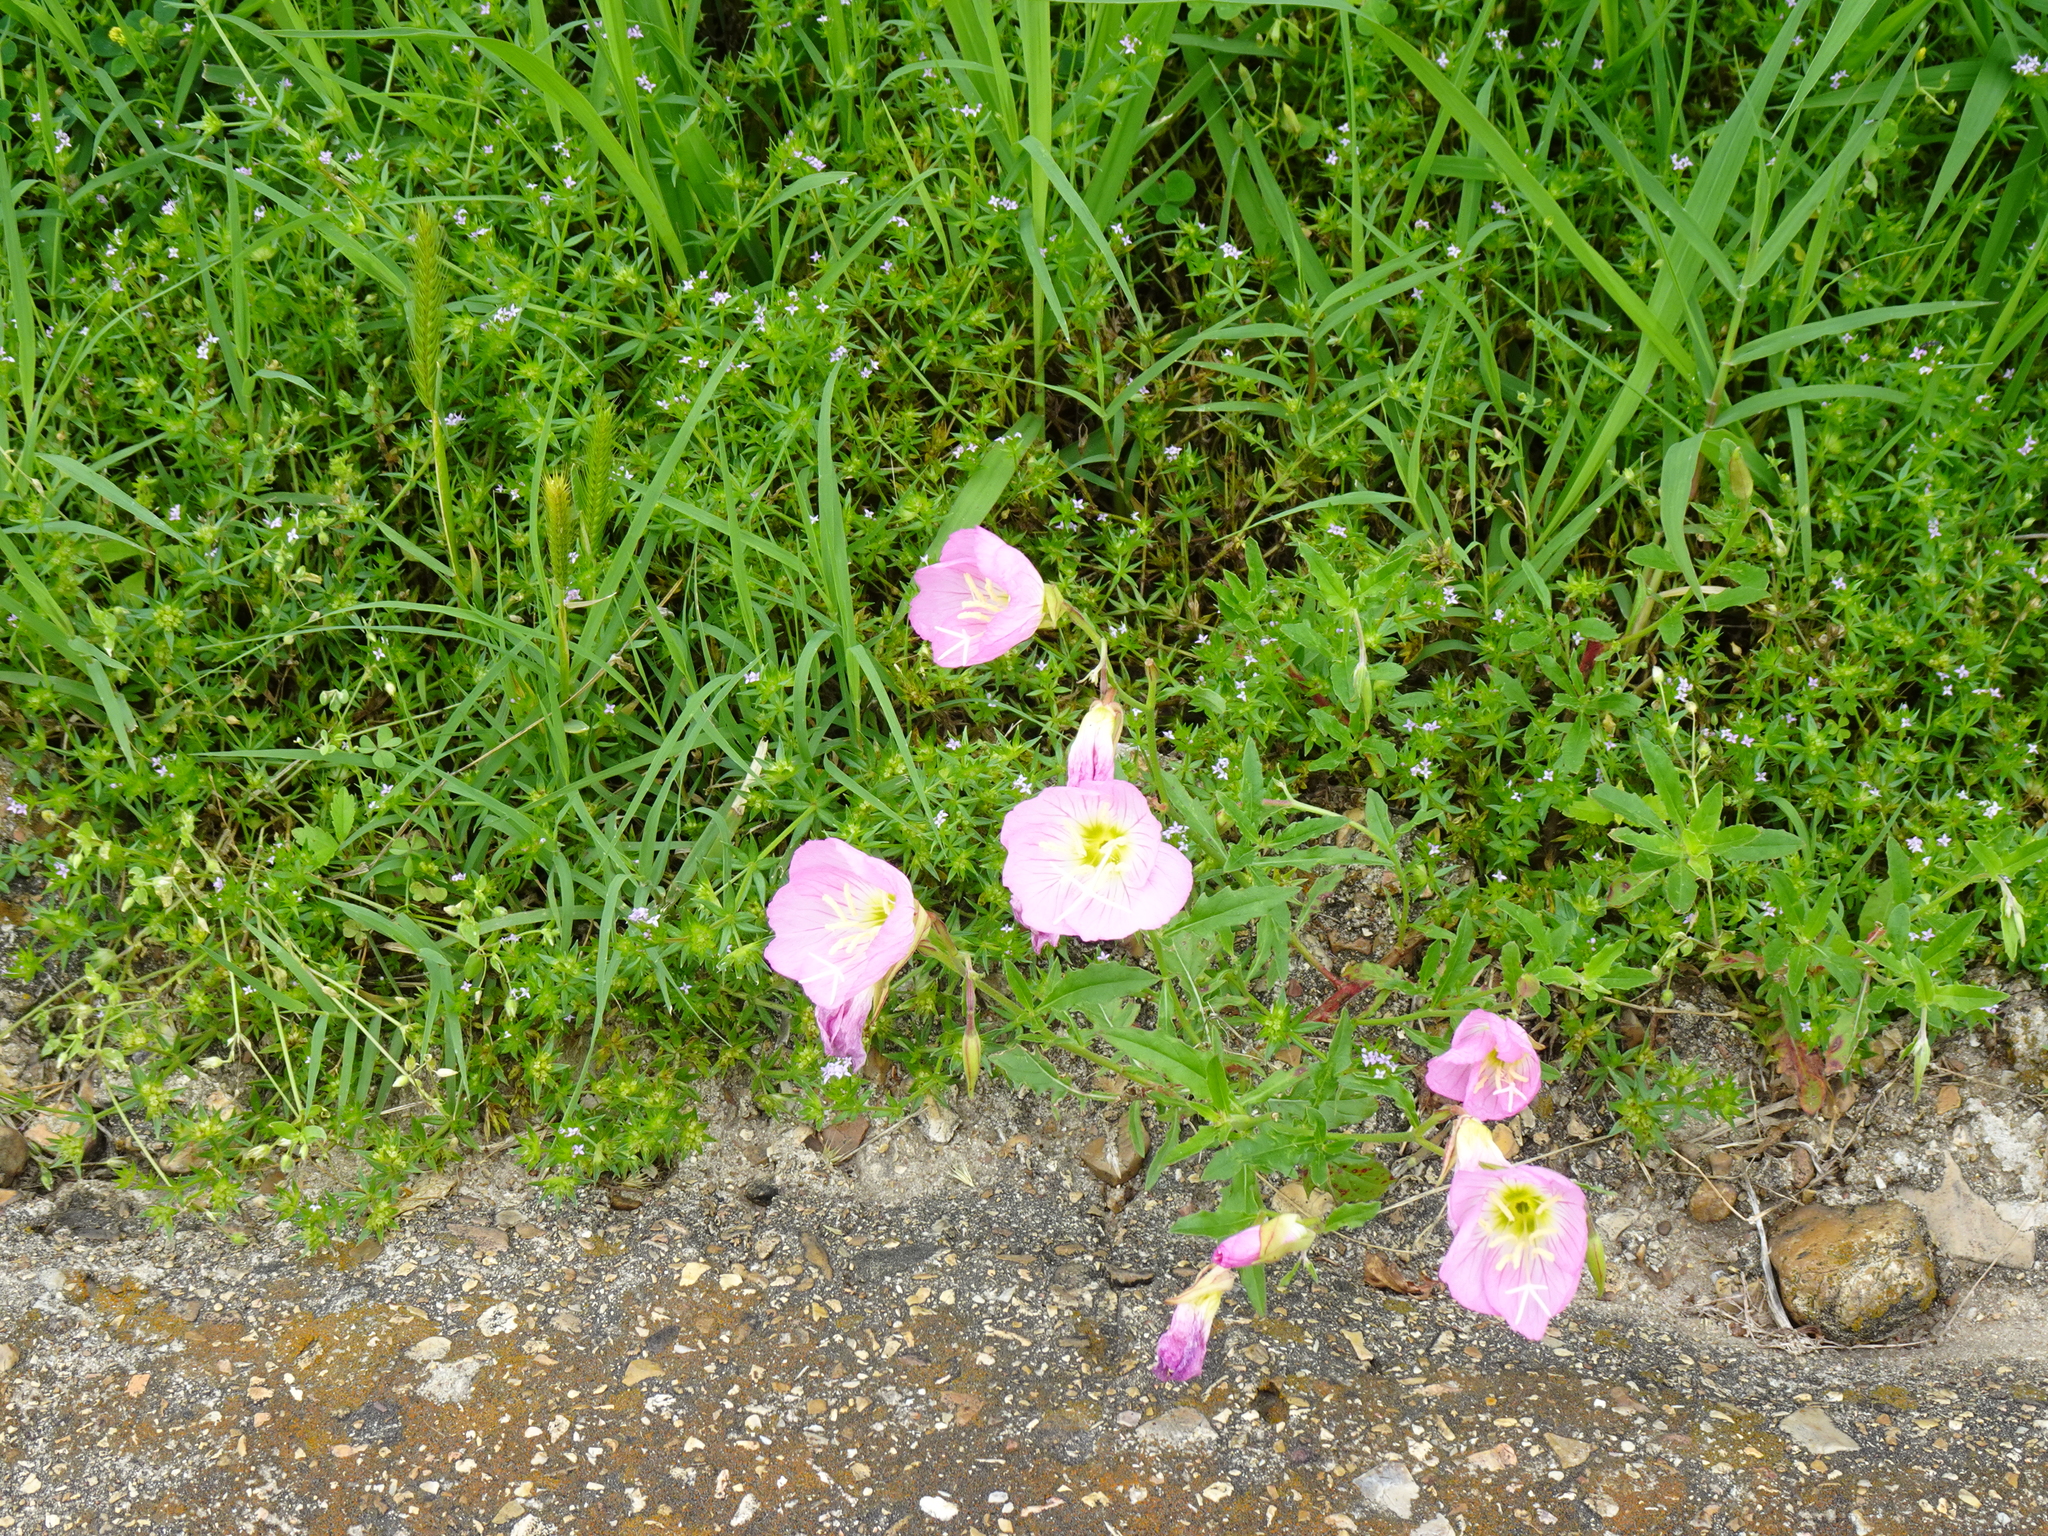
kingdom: Plantae
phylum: Tracheophyta
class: Magnoliopsida
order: Myrtales
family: Onagraceae
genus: Oenothera
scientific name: Oenothera speciosa
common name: White evening-primrose
